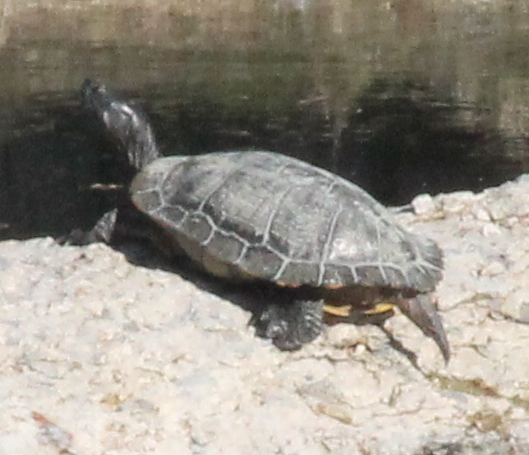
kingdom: Animalia
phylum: Chordata
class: Testudines
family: Emydidae
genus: Trachemys
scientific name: Trachemys scripta
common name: Slider
